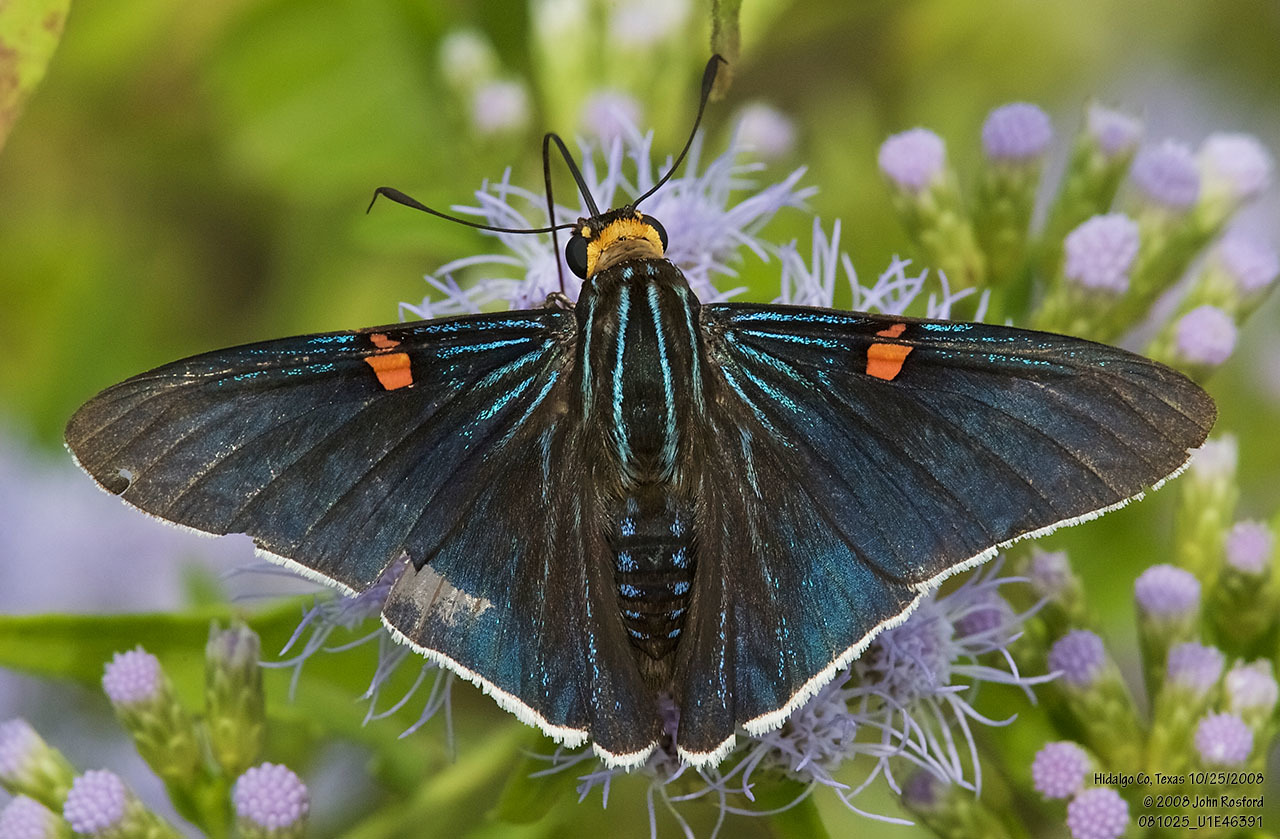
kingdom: Animalia
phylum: Arthropoda
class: Insecta
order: Lepidoptera
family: Hesperiidae
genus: Phocides
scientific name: Phocides lilea
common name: Guava skipper
